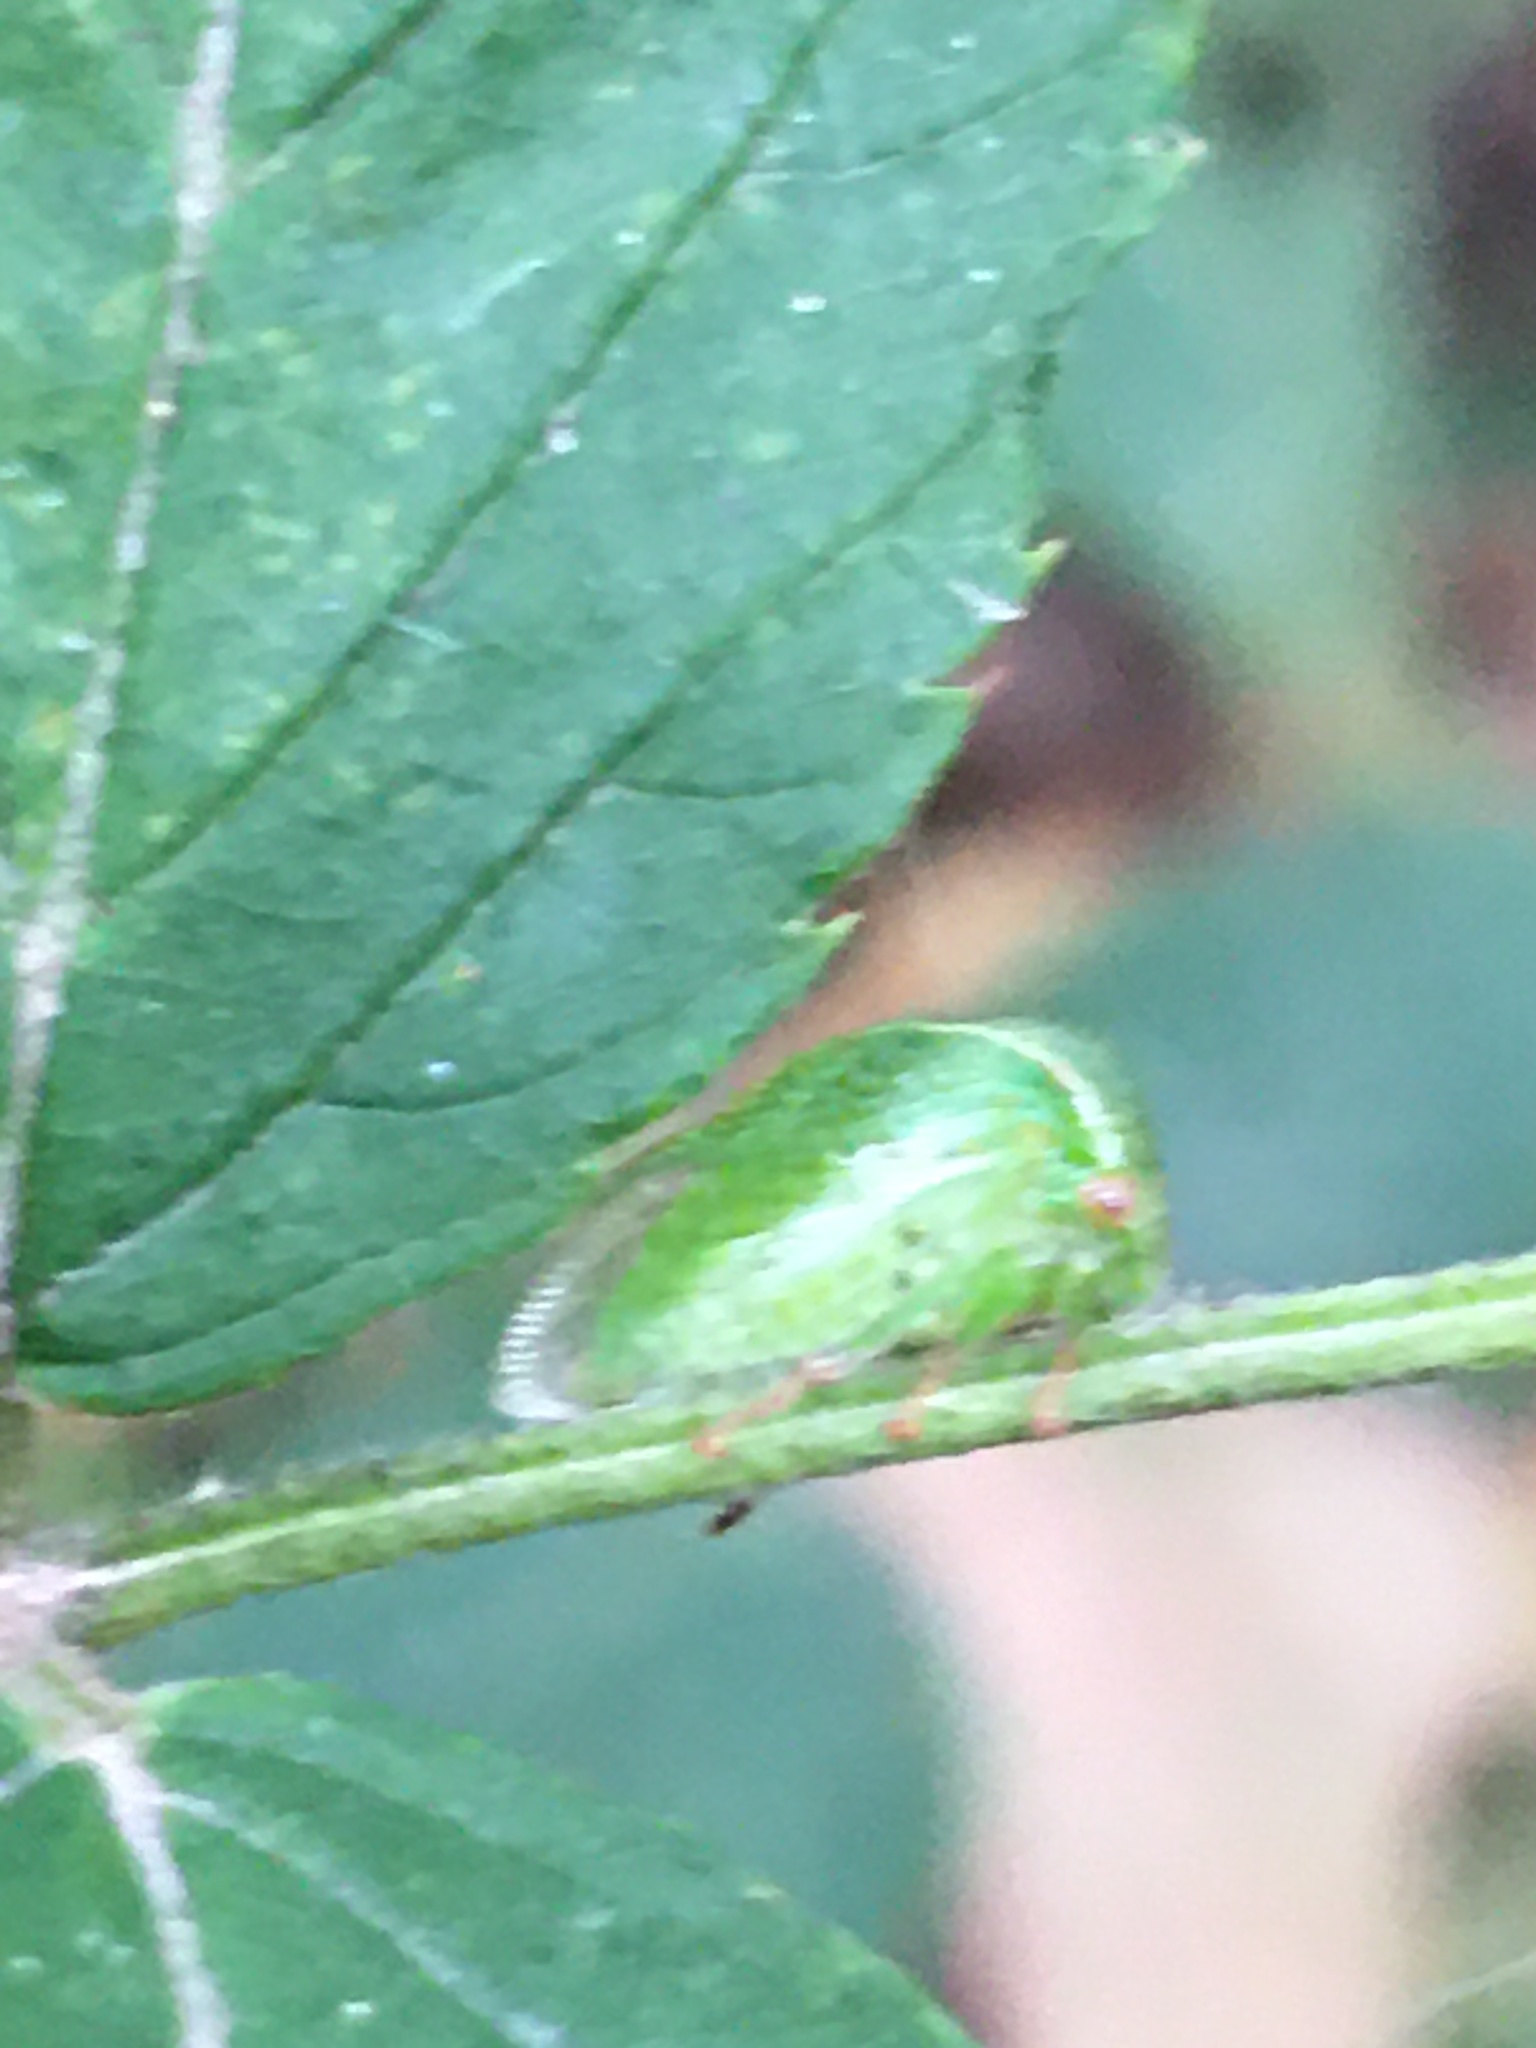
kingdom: Animalia
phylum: Arthropoda
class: Insecta
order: Hemiptera
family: Membracidae
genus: Spissistilus
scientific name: Spissistilus festina
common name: Membracid bug
